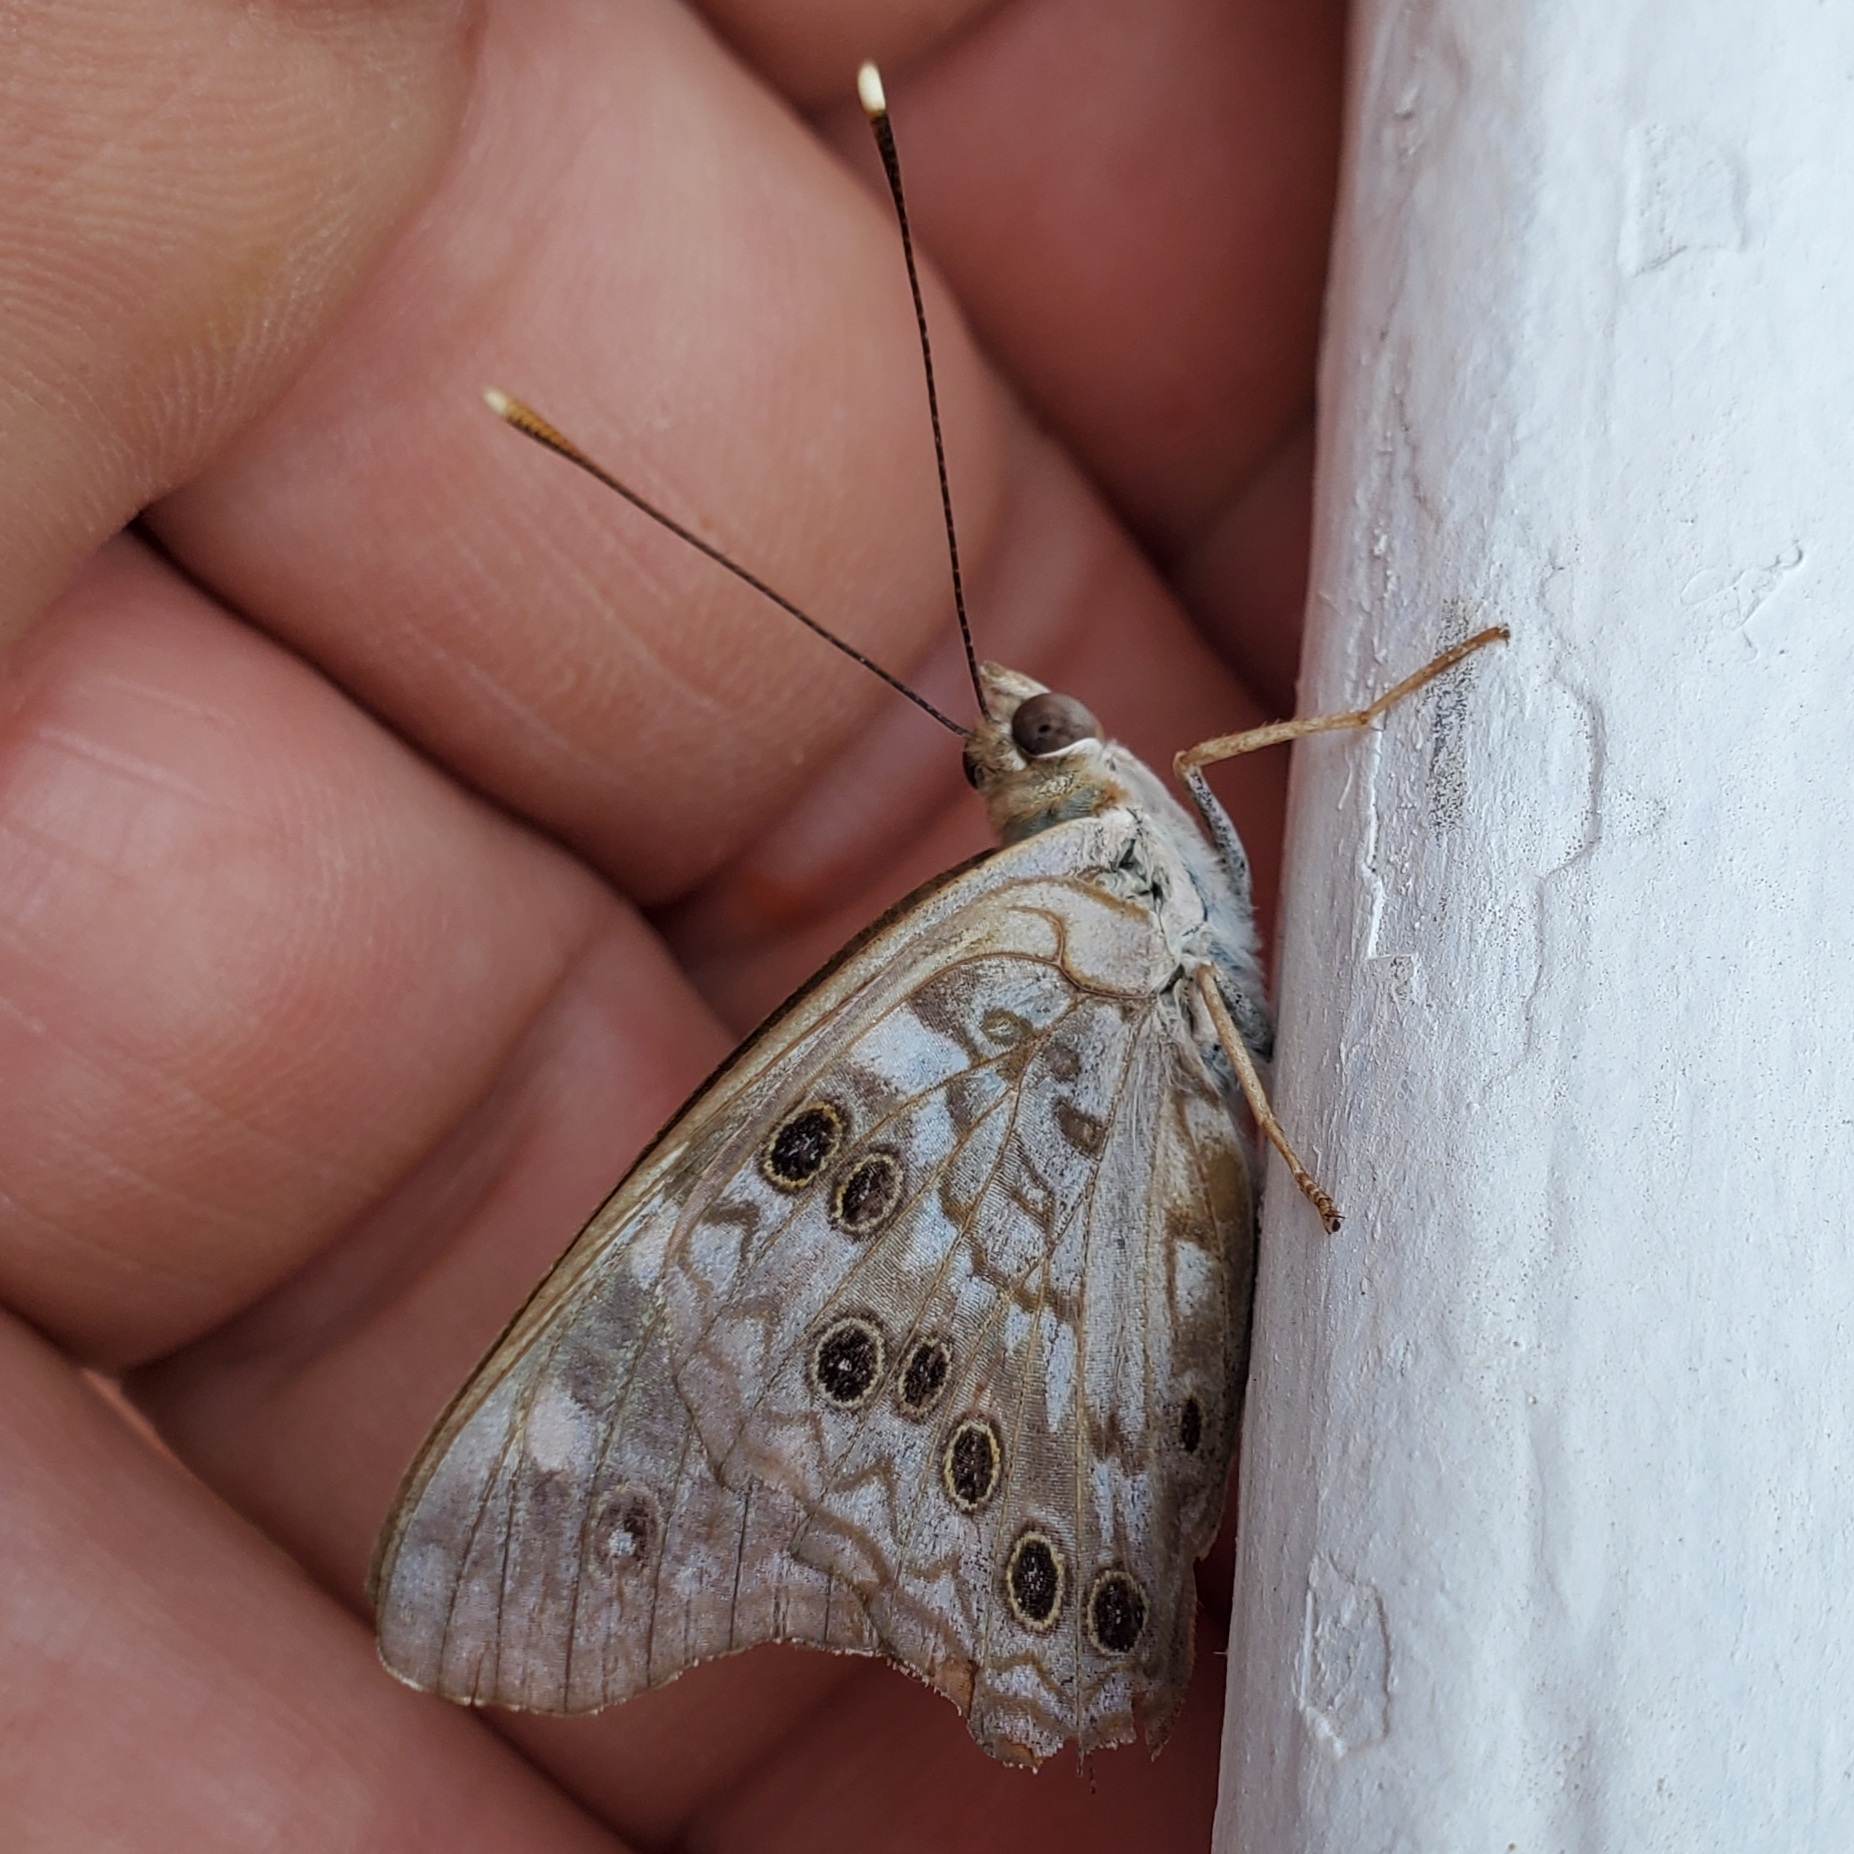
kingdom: Animalia
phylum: Arthropoda
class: Insecta
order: Lepidoptera
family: Nymphalidae
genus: Asterocampa
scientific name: Asterocampa celtis
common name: Hackberry emperor
